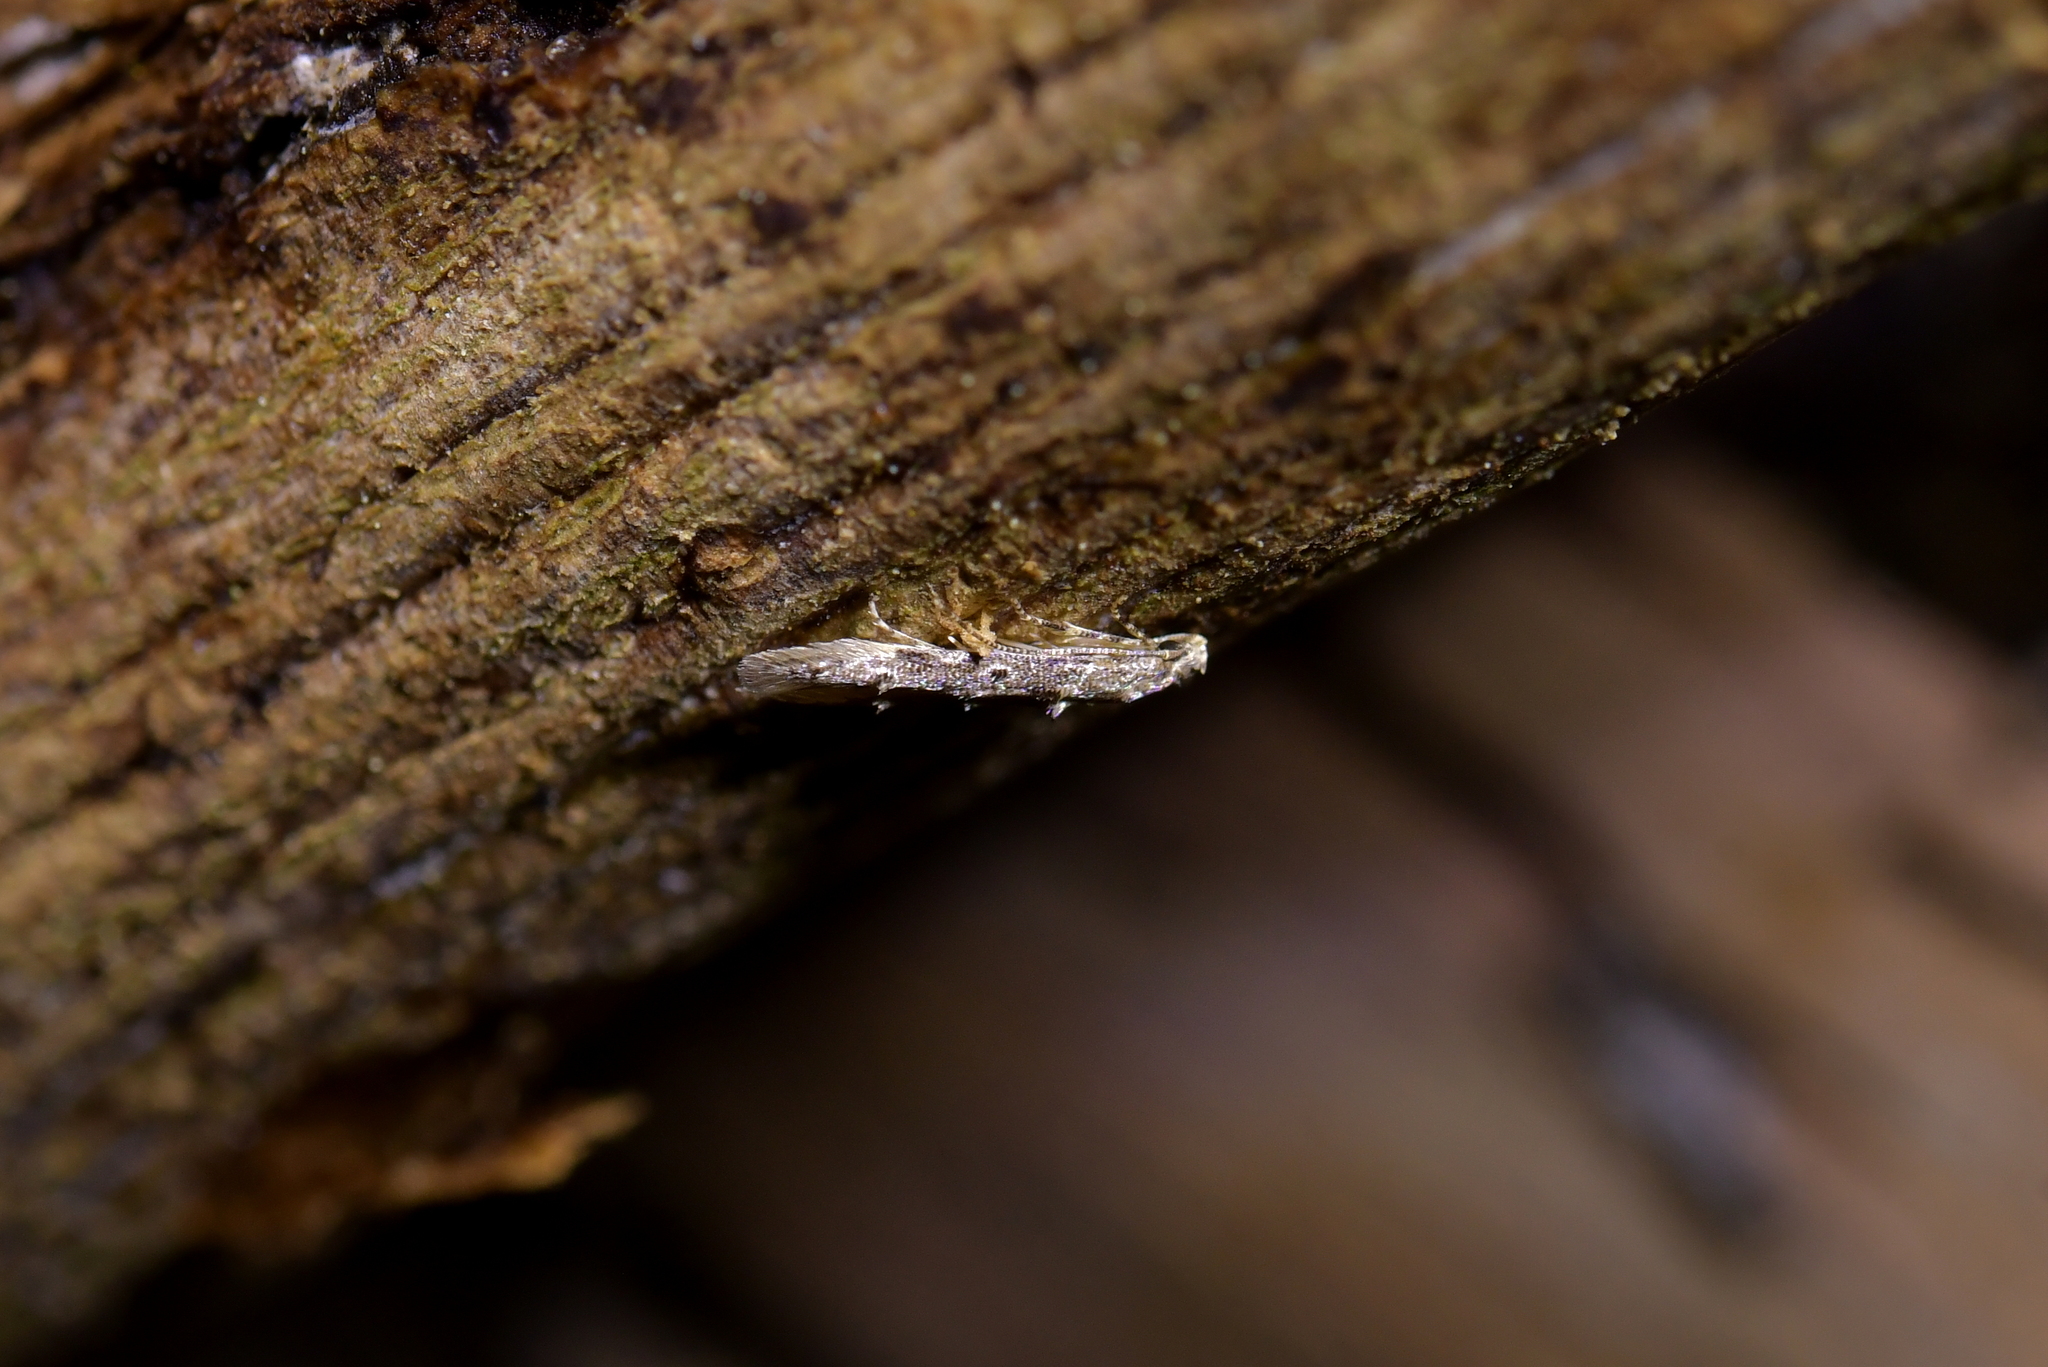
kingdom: Animalia
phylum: Arthropoda
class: Insecta
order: Lepidoptera
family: Elachistidae
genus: Microcolona
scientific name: Microcolona limodes
